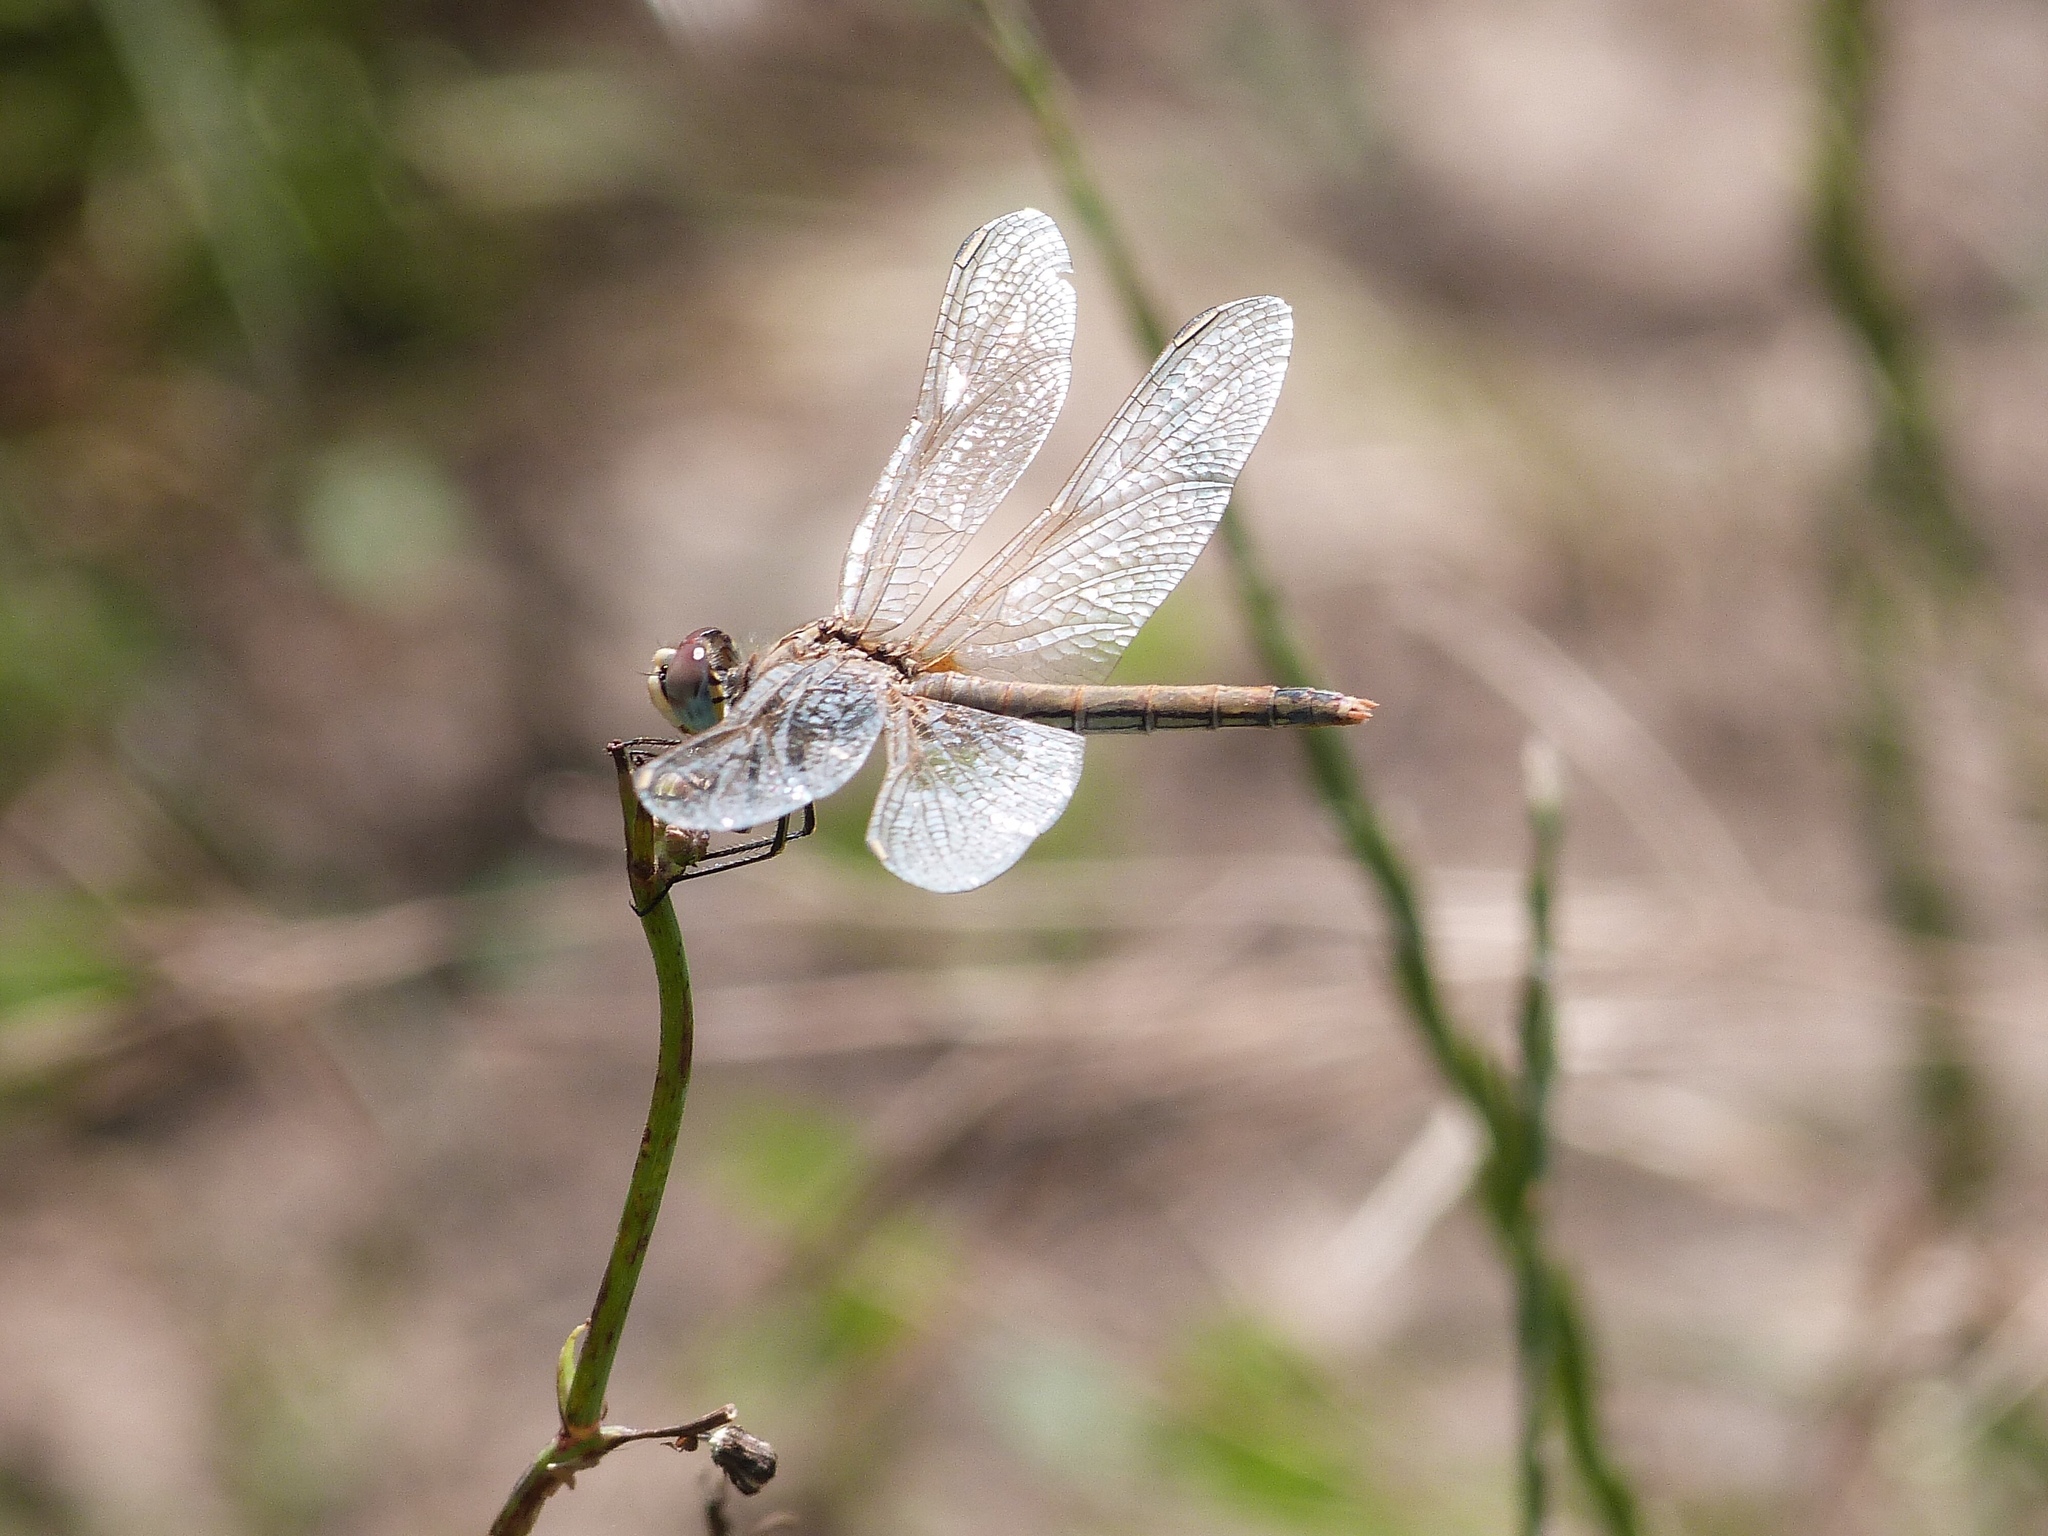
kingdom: Animalia
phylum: Arthropoda
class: Insecta
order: Odonata
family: Libellulidae
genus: Sympetrum
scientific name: Sympetrum fonscolombii
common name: Red-veined darter
